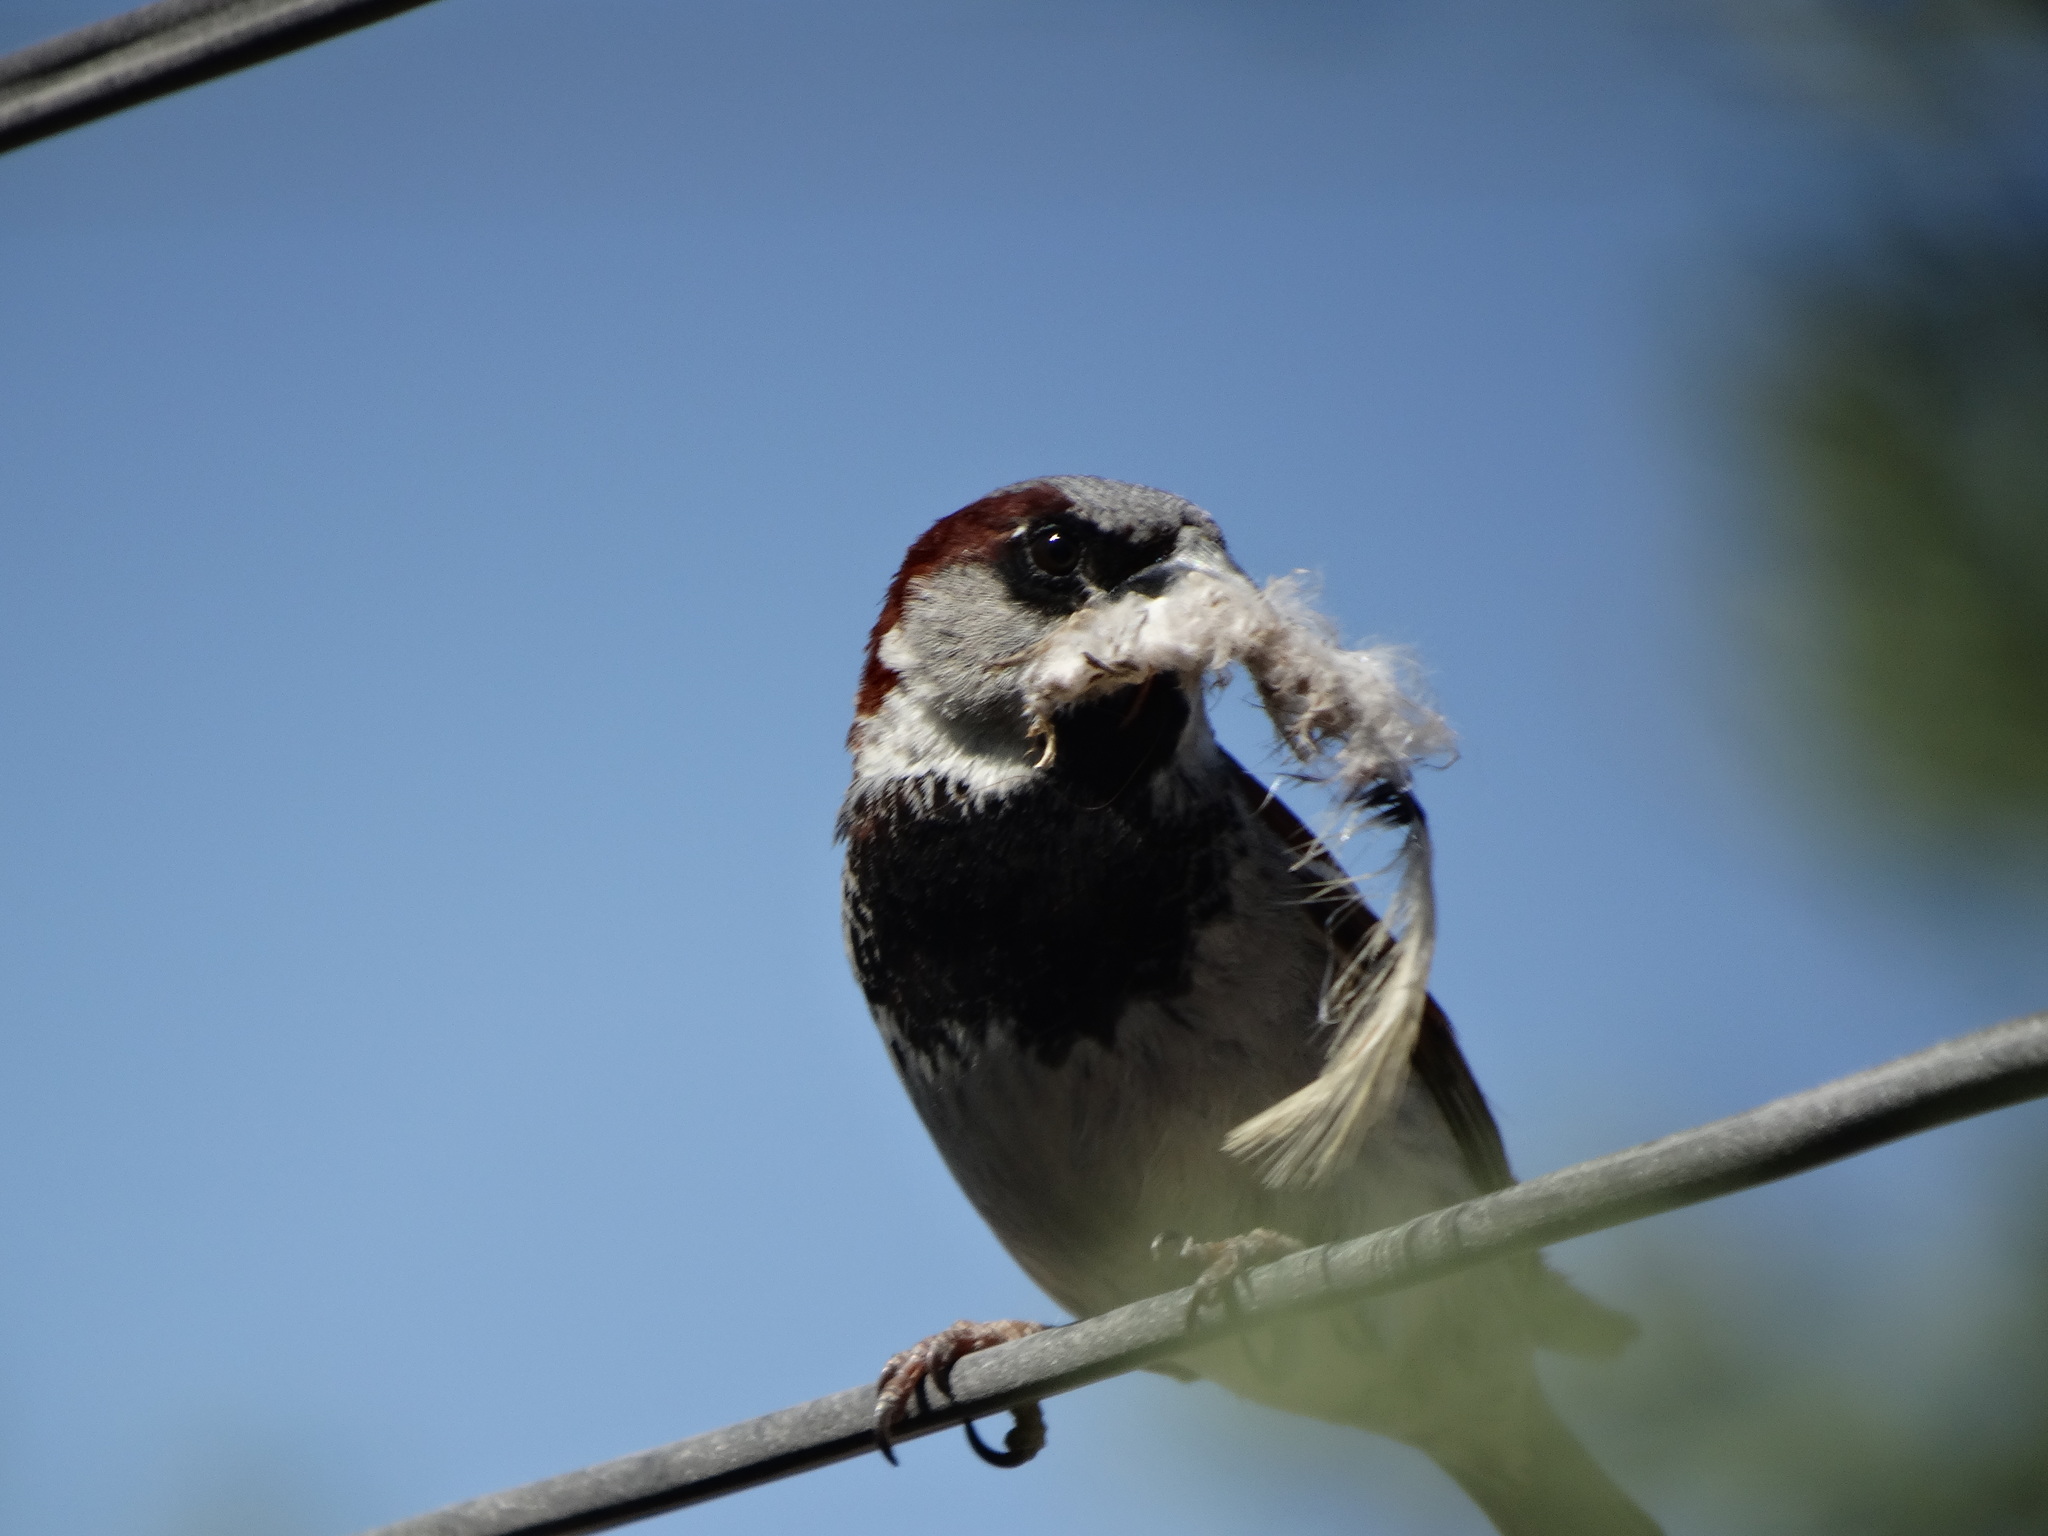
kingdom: Animalia
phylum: Chordata
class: Aves
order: Passeriformes
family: Passeridae
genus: Passer
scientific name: Passer domesticus
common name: House sparrow
